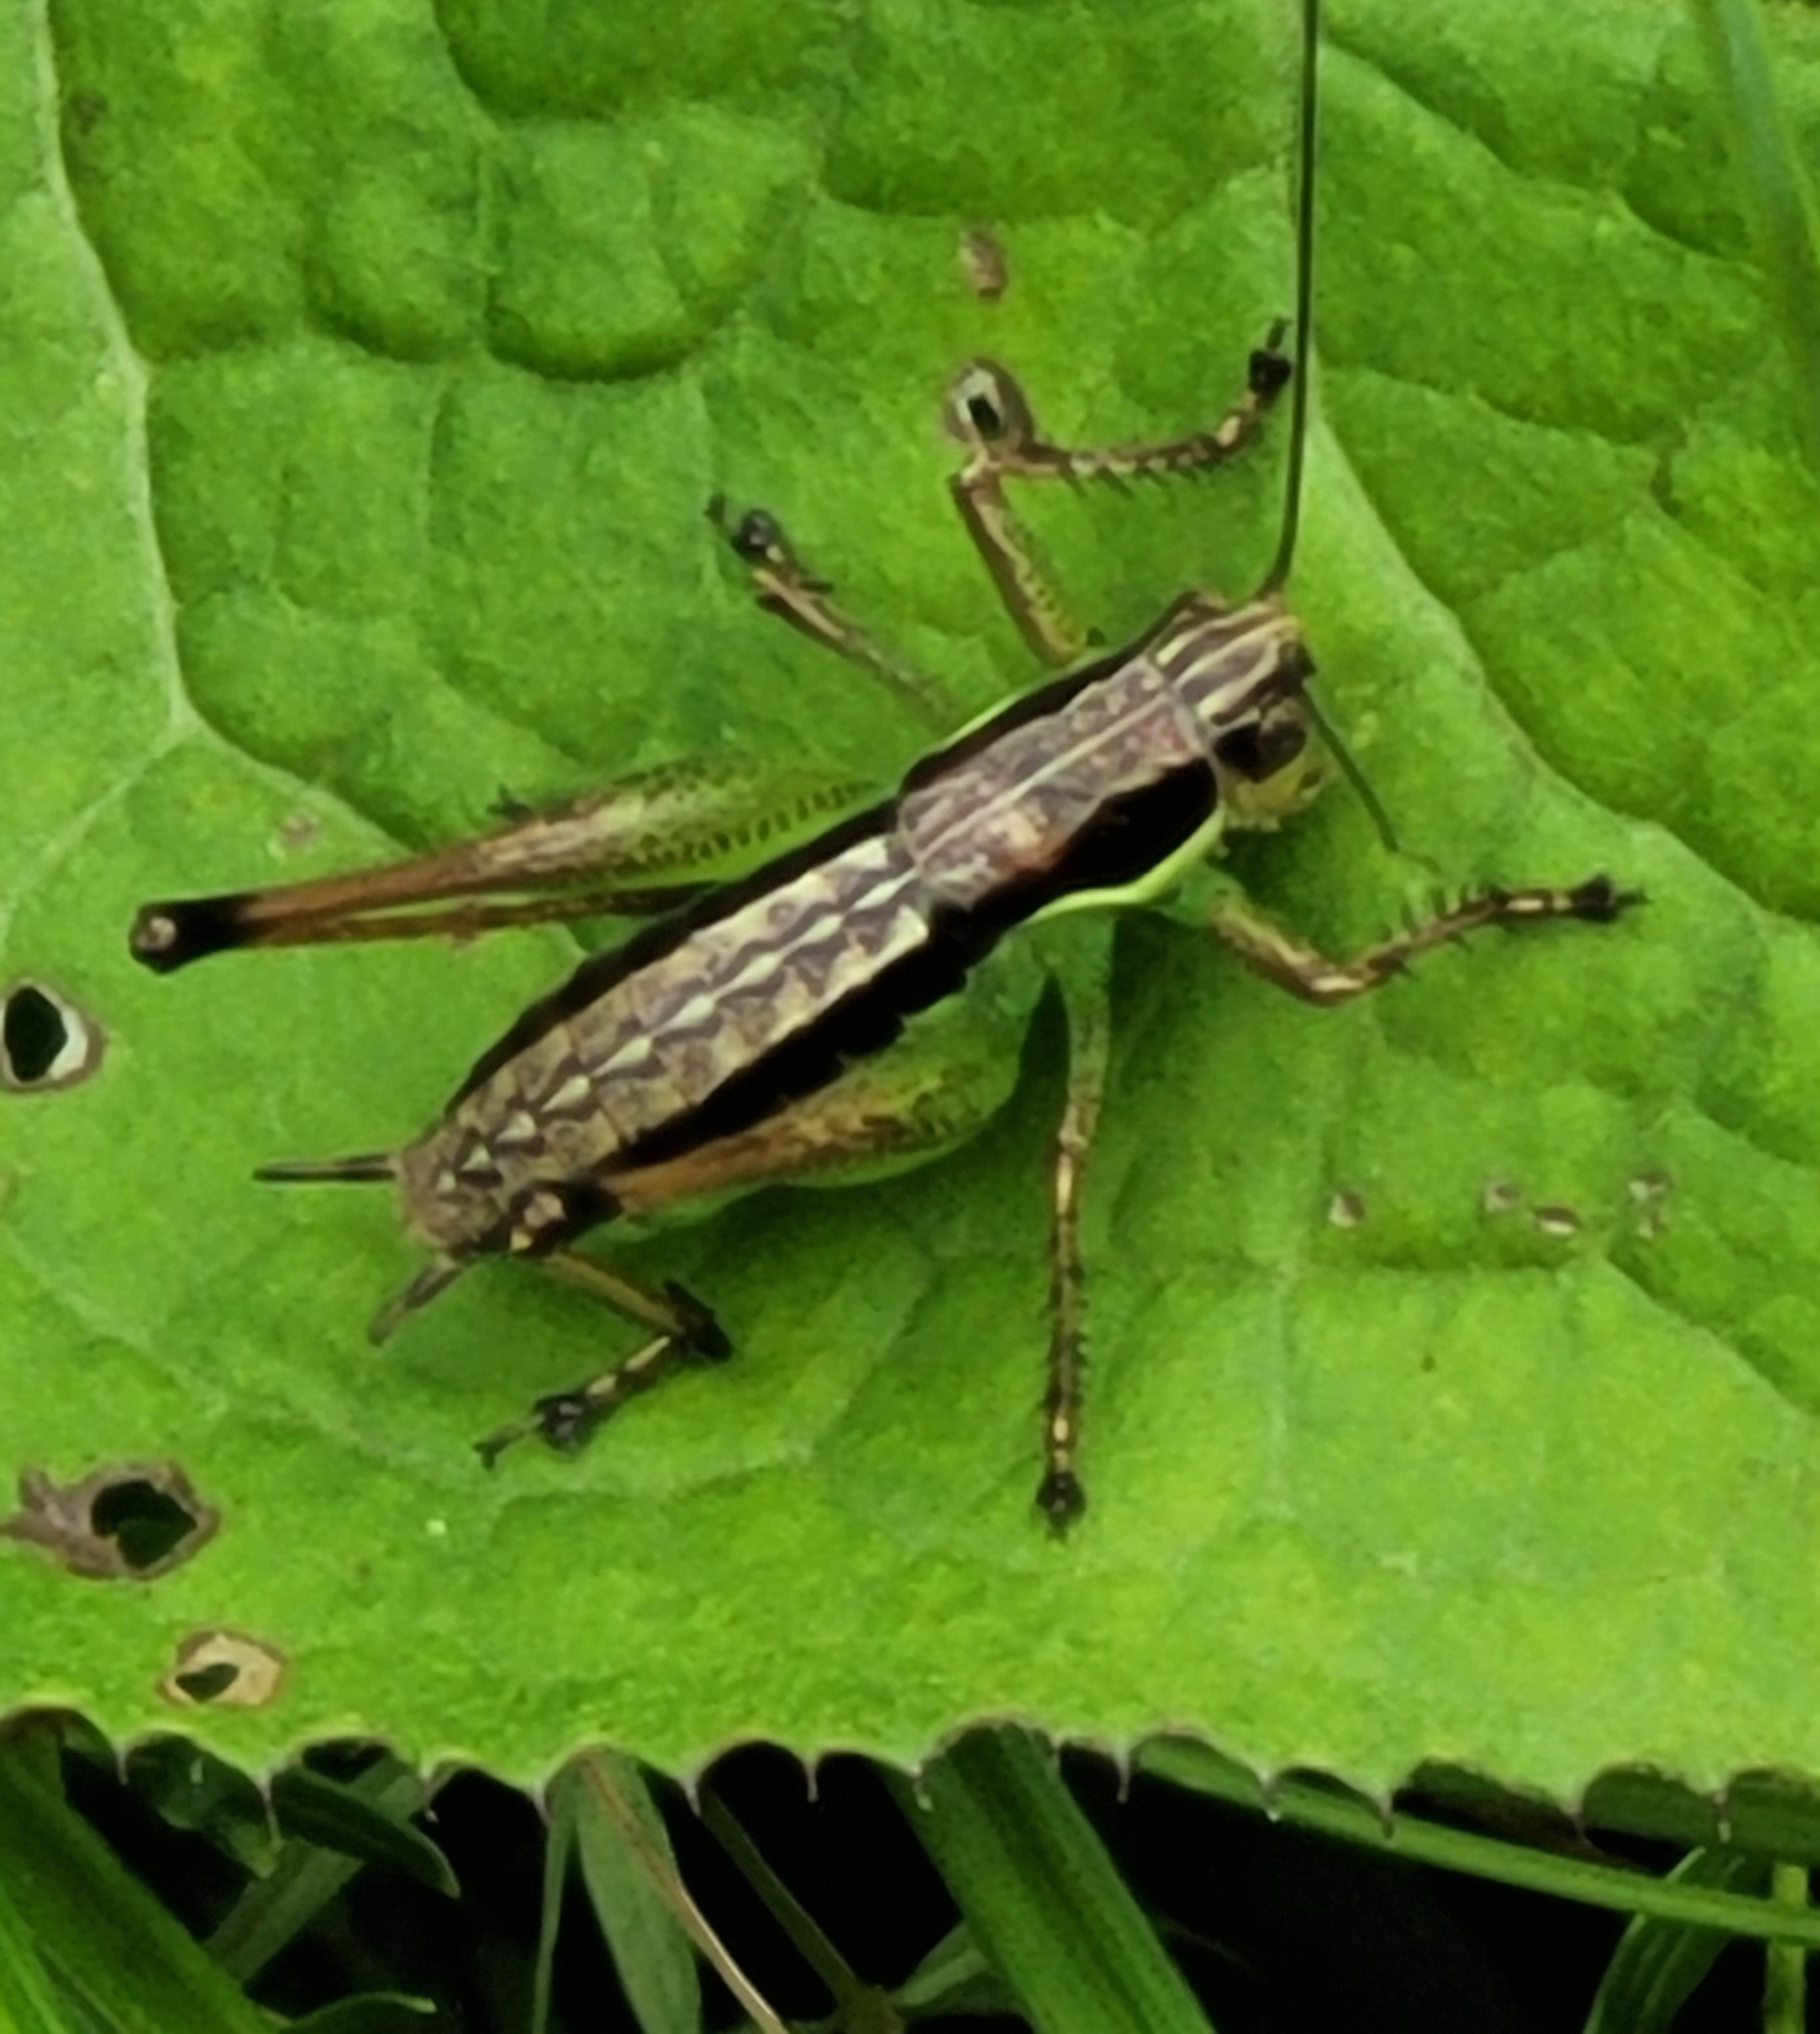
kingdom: Animalia
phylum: Arthropoda
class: Insecta
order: Orthoptera
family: Tettigoniidae
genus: Pachytrachis
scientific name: Pachytrachis gracilis
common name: Graceful bush-cricket
